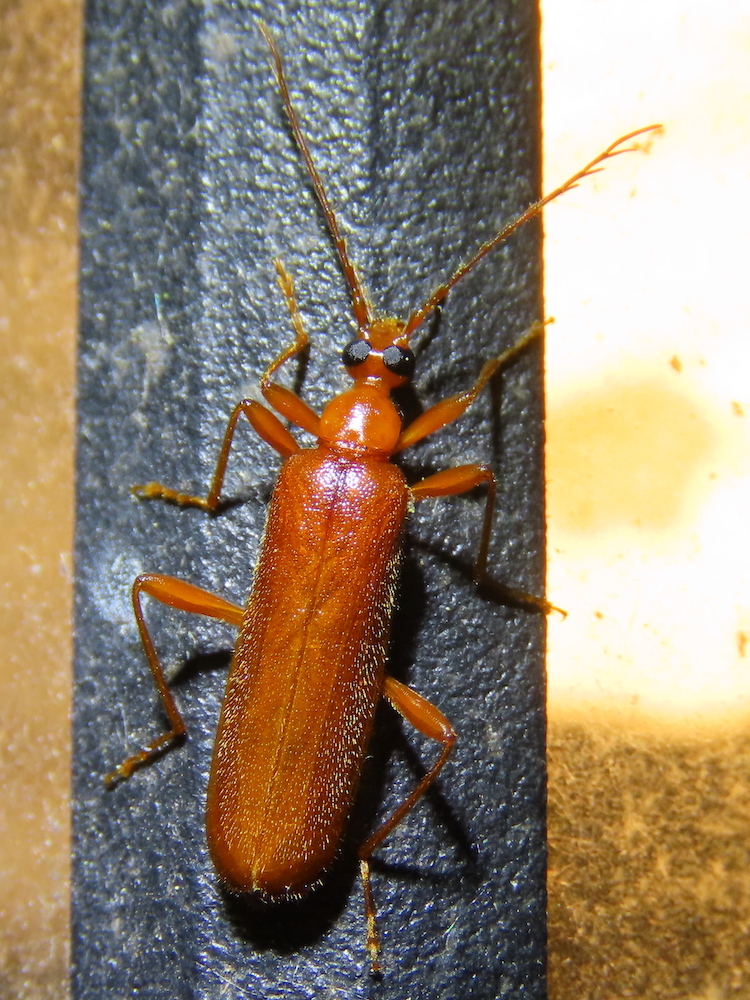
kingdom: Animalia
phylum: Arthropoda
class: Insecta
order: Coleoptera
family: Pyrochroidae
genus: Dendroides
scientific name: Dendroides concolor
